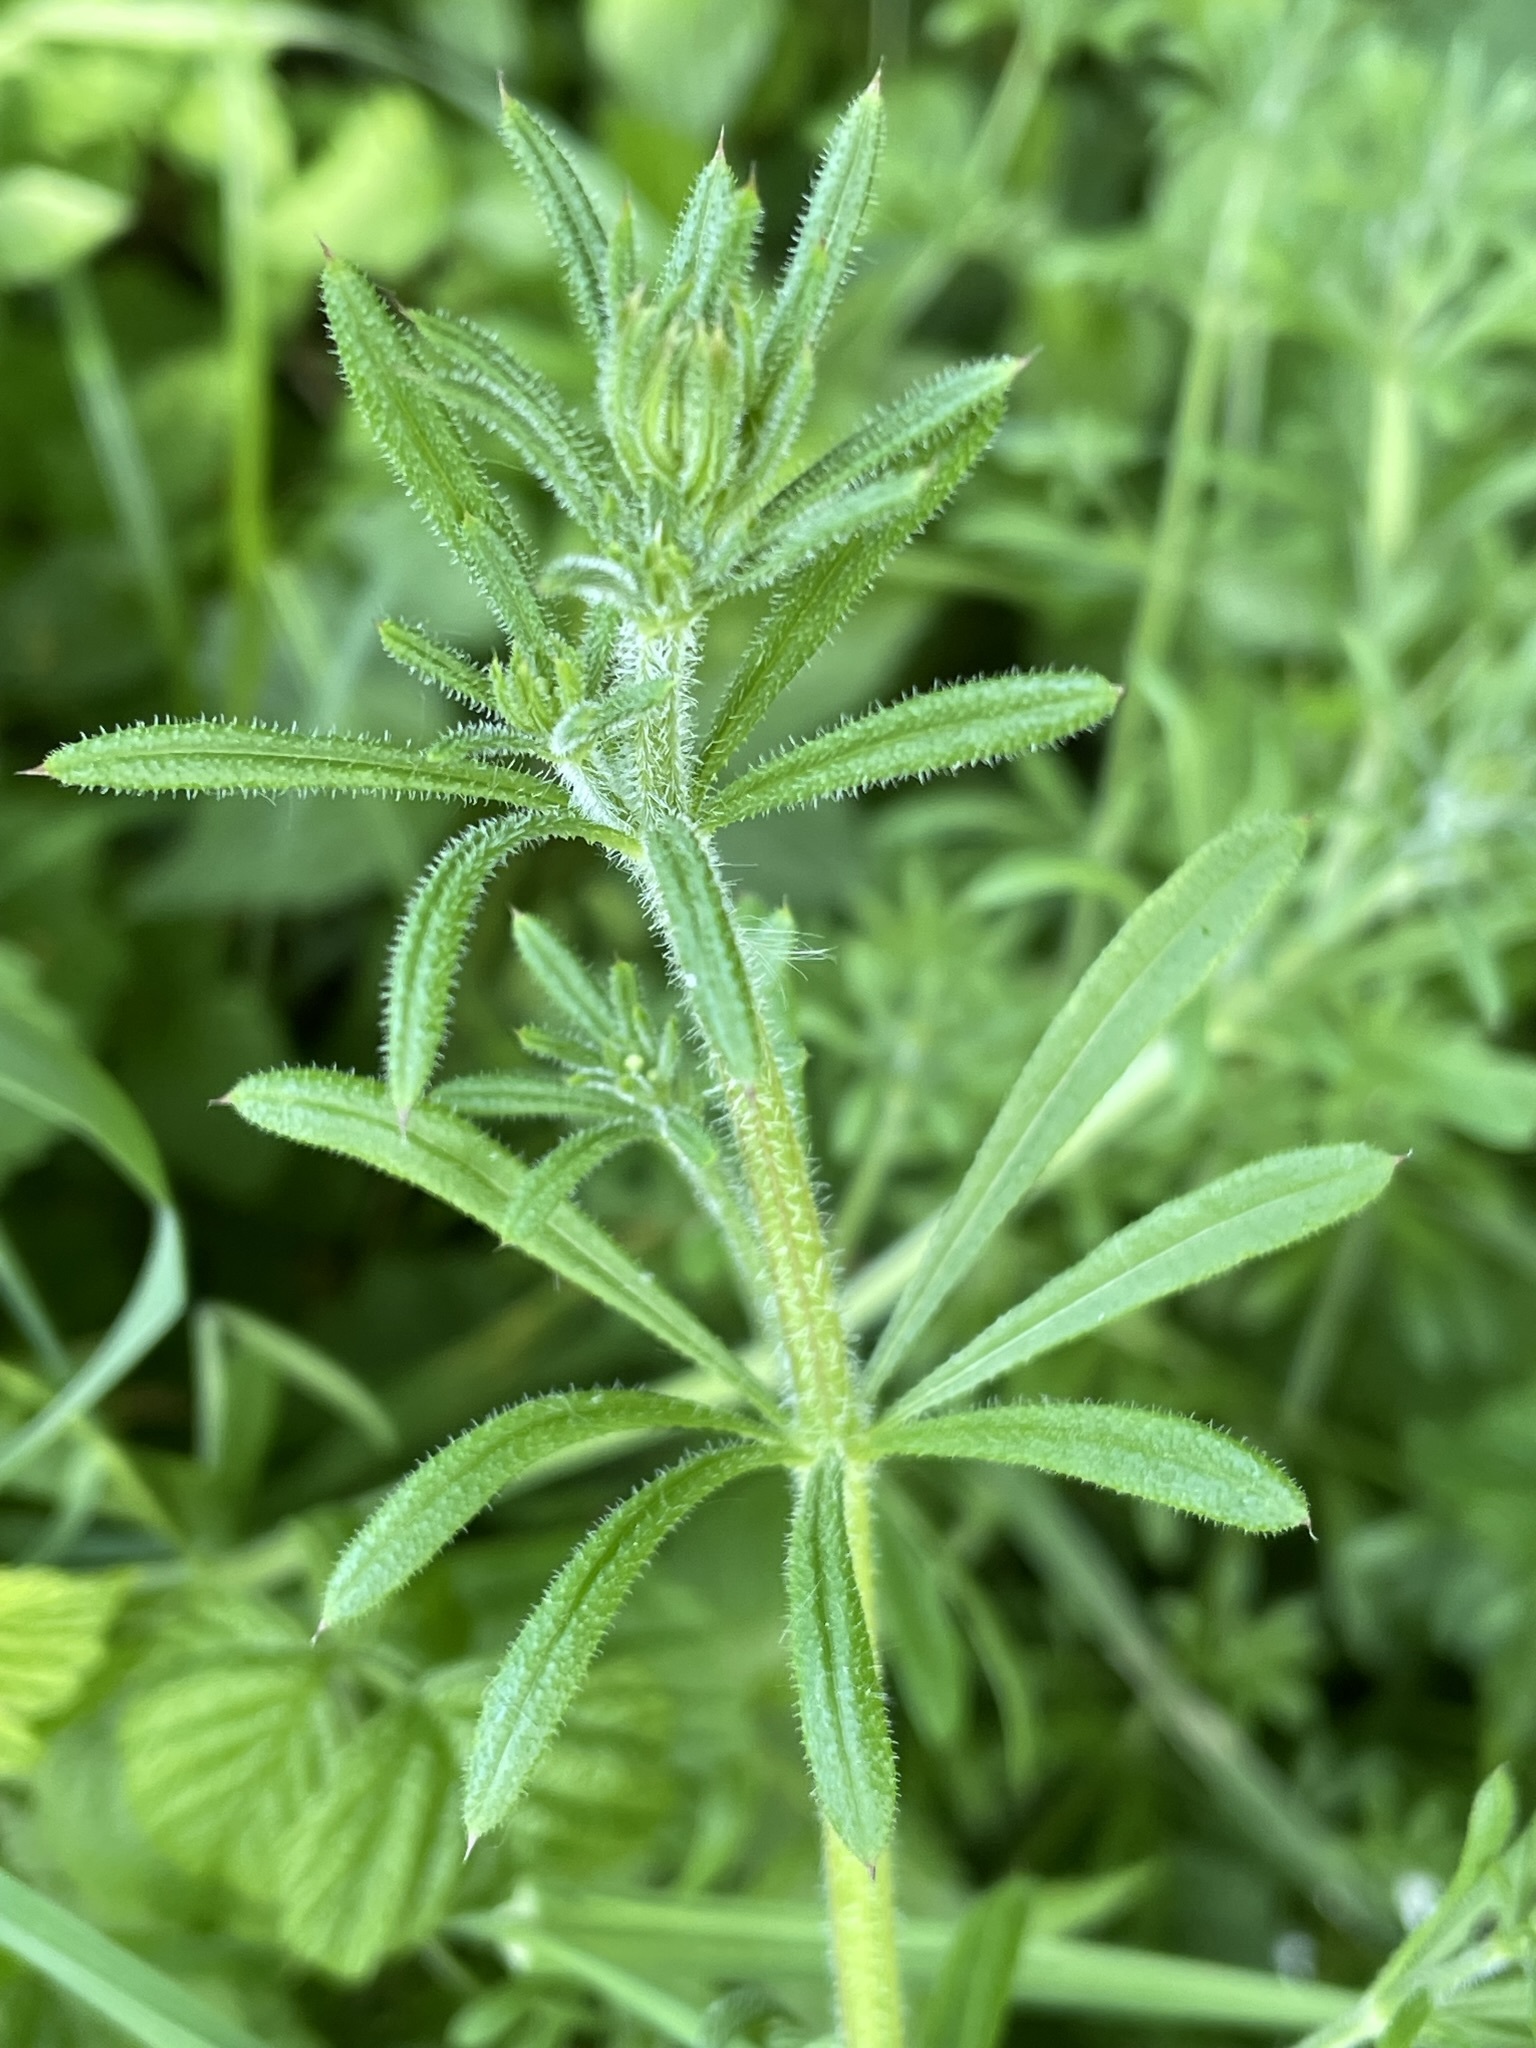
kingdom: Plantae
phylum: Tracheophyta
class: Magnoliopsida
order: Gentianales
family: Rubiaceae
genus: Galium
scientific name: Galium aparine
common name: Cleavers
